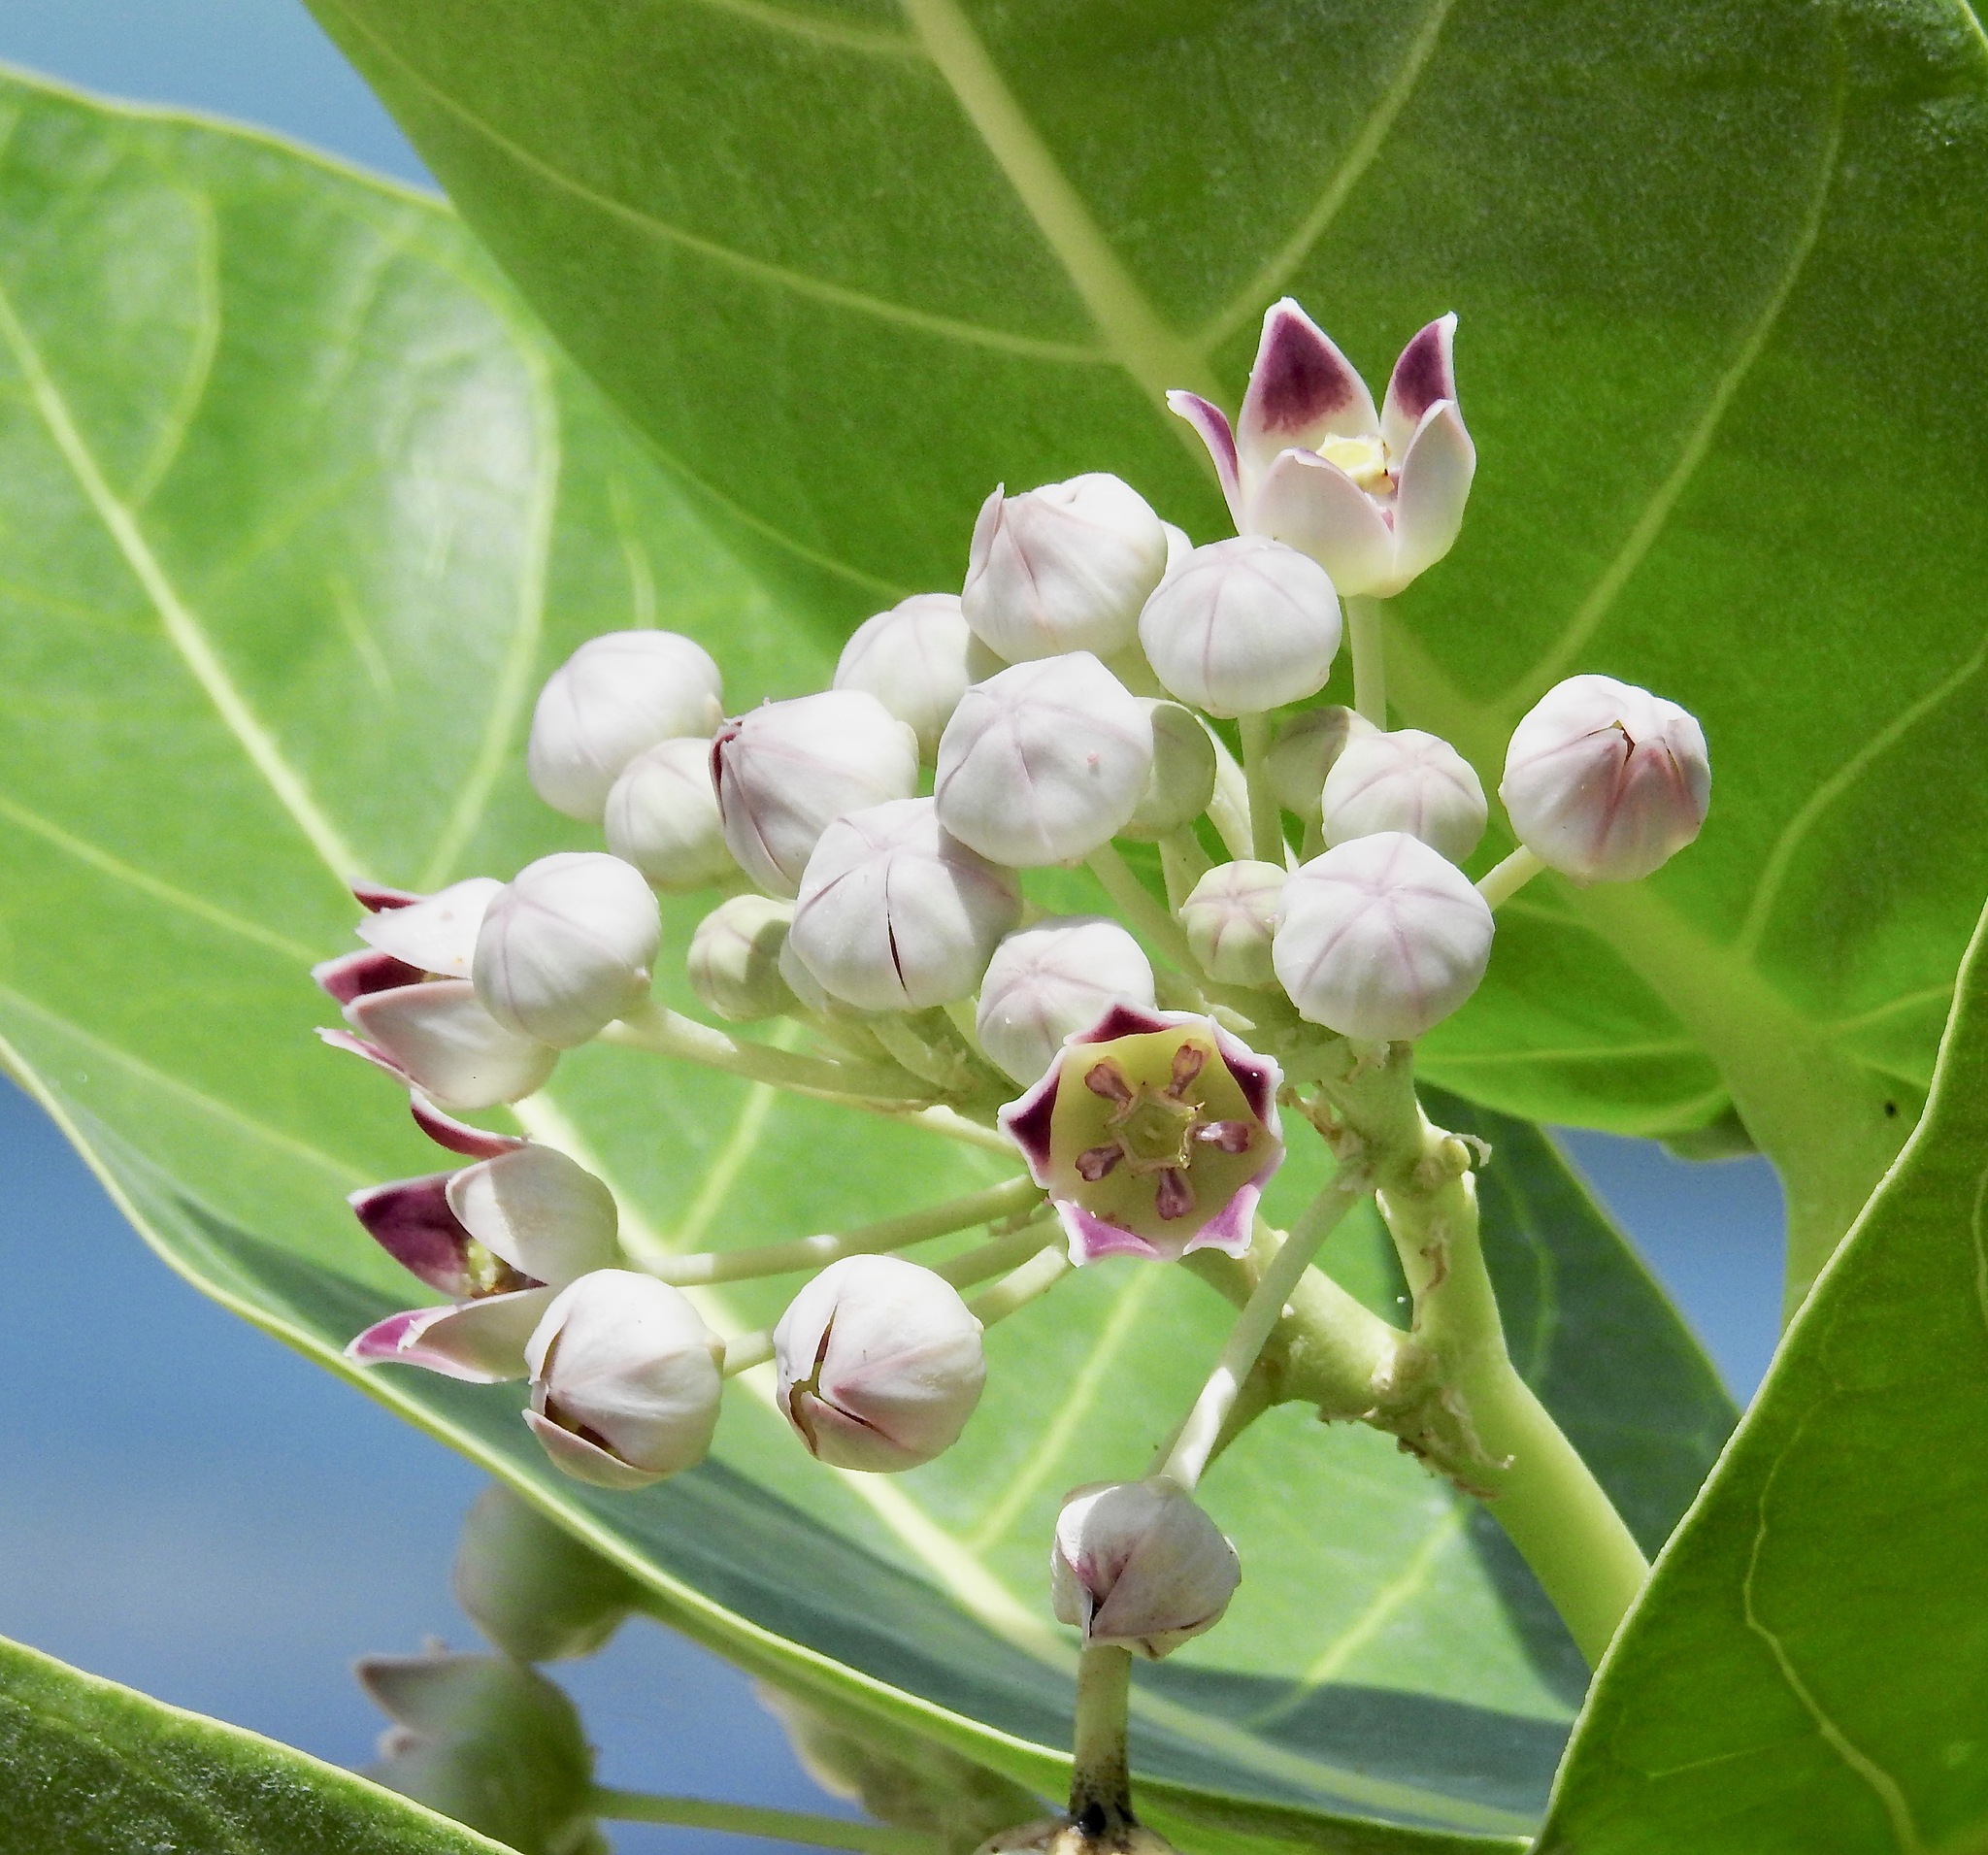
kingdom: Plantae
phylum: Tracheophyta
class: Magnoliopsida
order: Gentianales
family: Apocynaceae
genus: Calotropis
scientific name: Calotropis procera
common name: Roostertree
